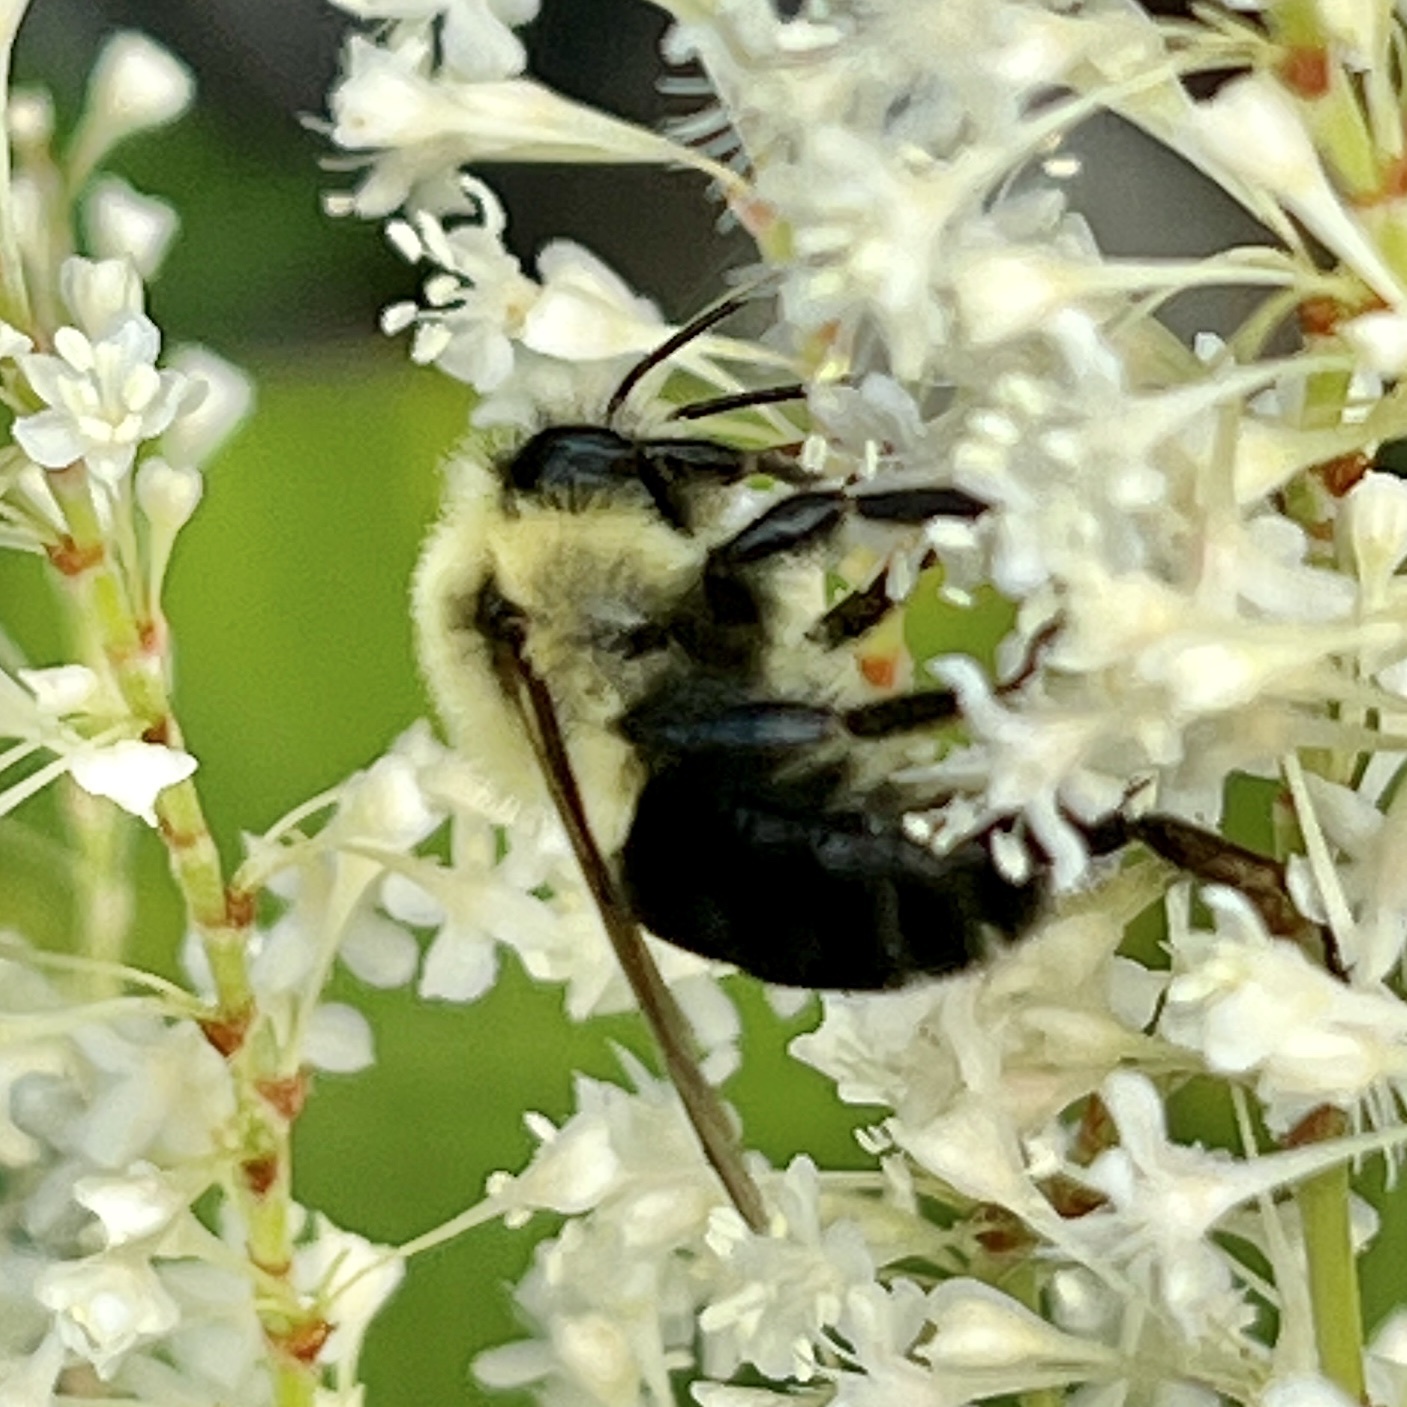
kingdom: Animalia
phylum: Arthropoda
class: Insecta
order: Hymenoptera
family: Apidae
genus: Bombus
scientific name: Bombus impatiens
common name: Common eastern bumble bee
